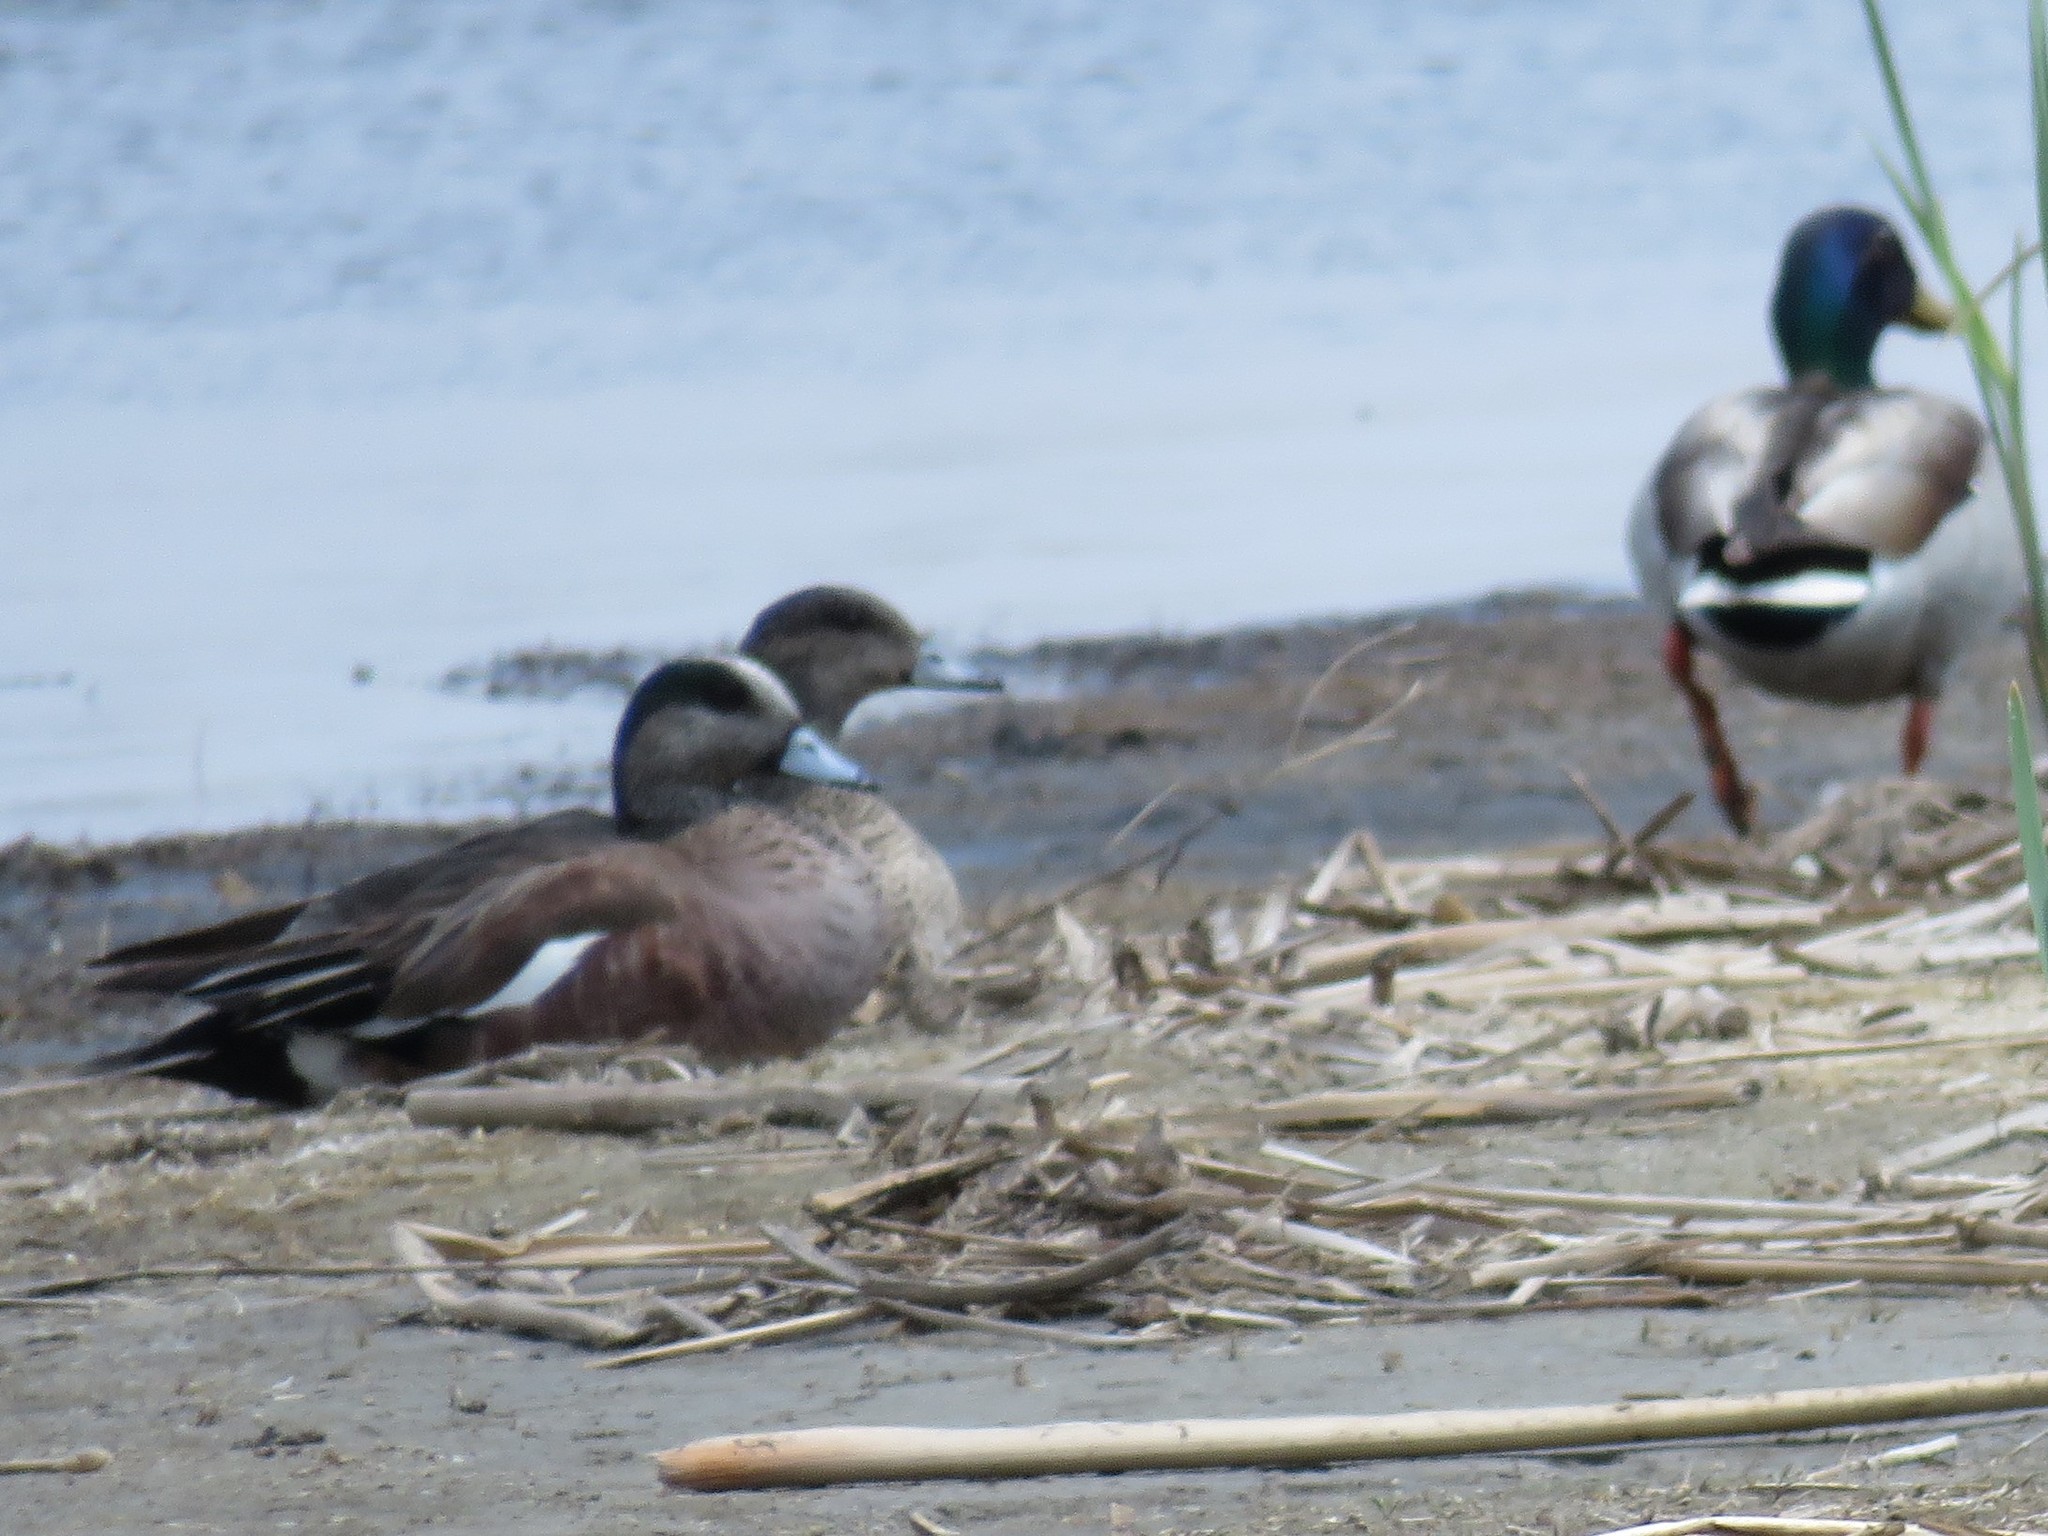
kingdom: Animalia
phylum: Chordata
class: Aves
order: Anseriformes
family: Anatidae
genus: Mareca
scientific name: Mareca americana
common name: American wigeon
